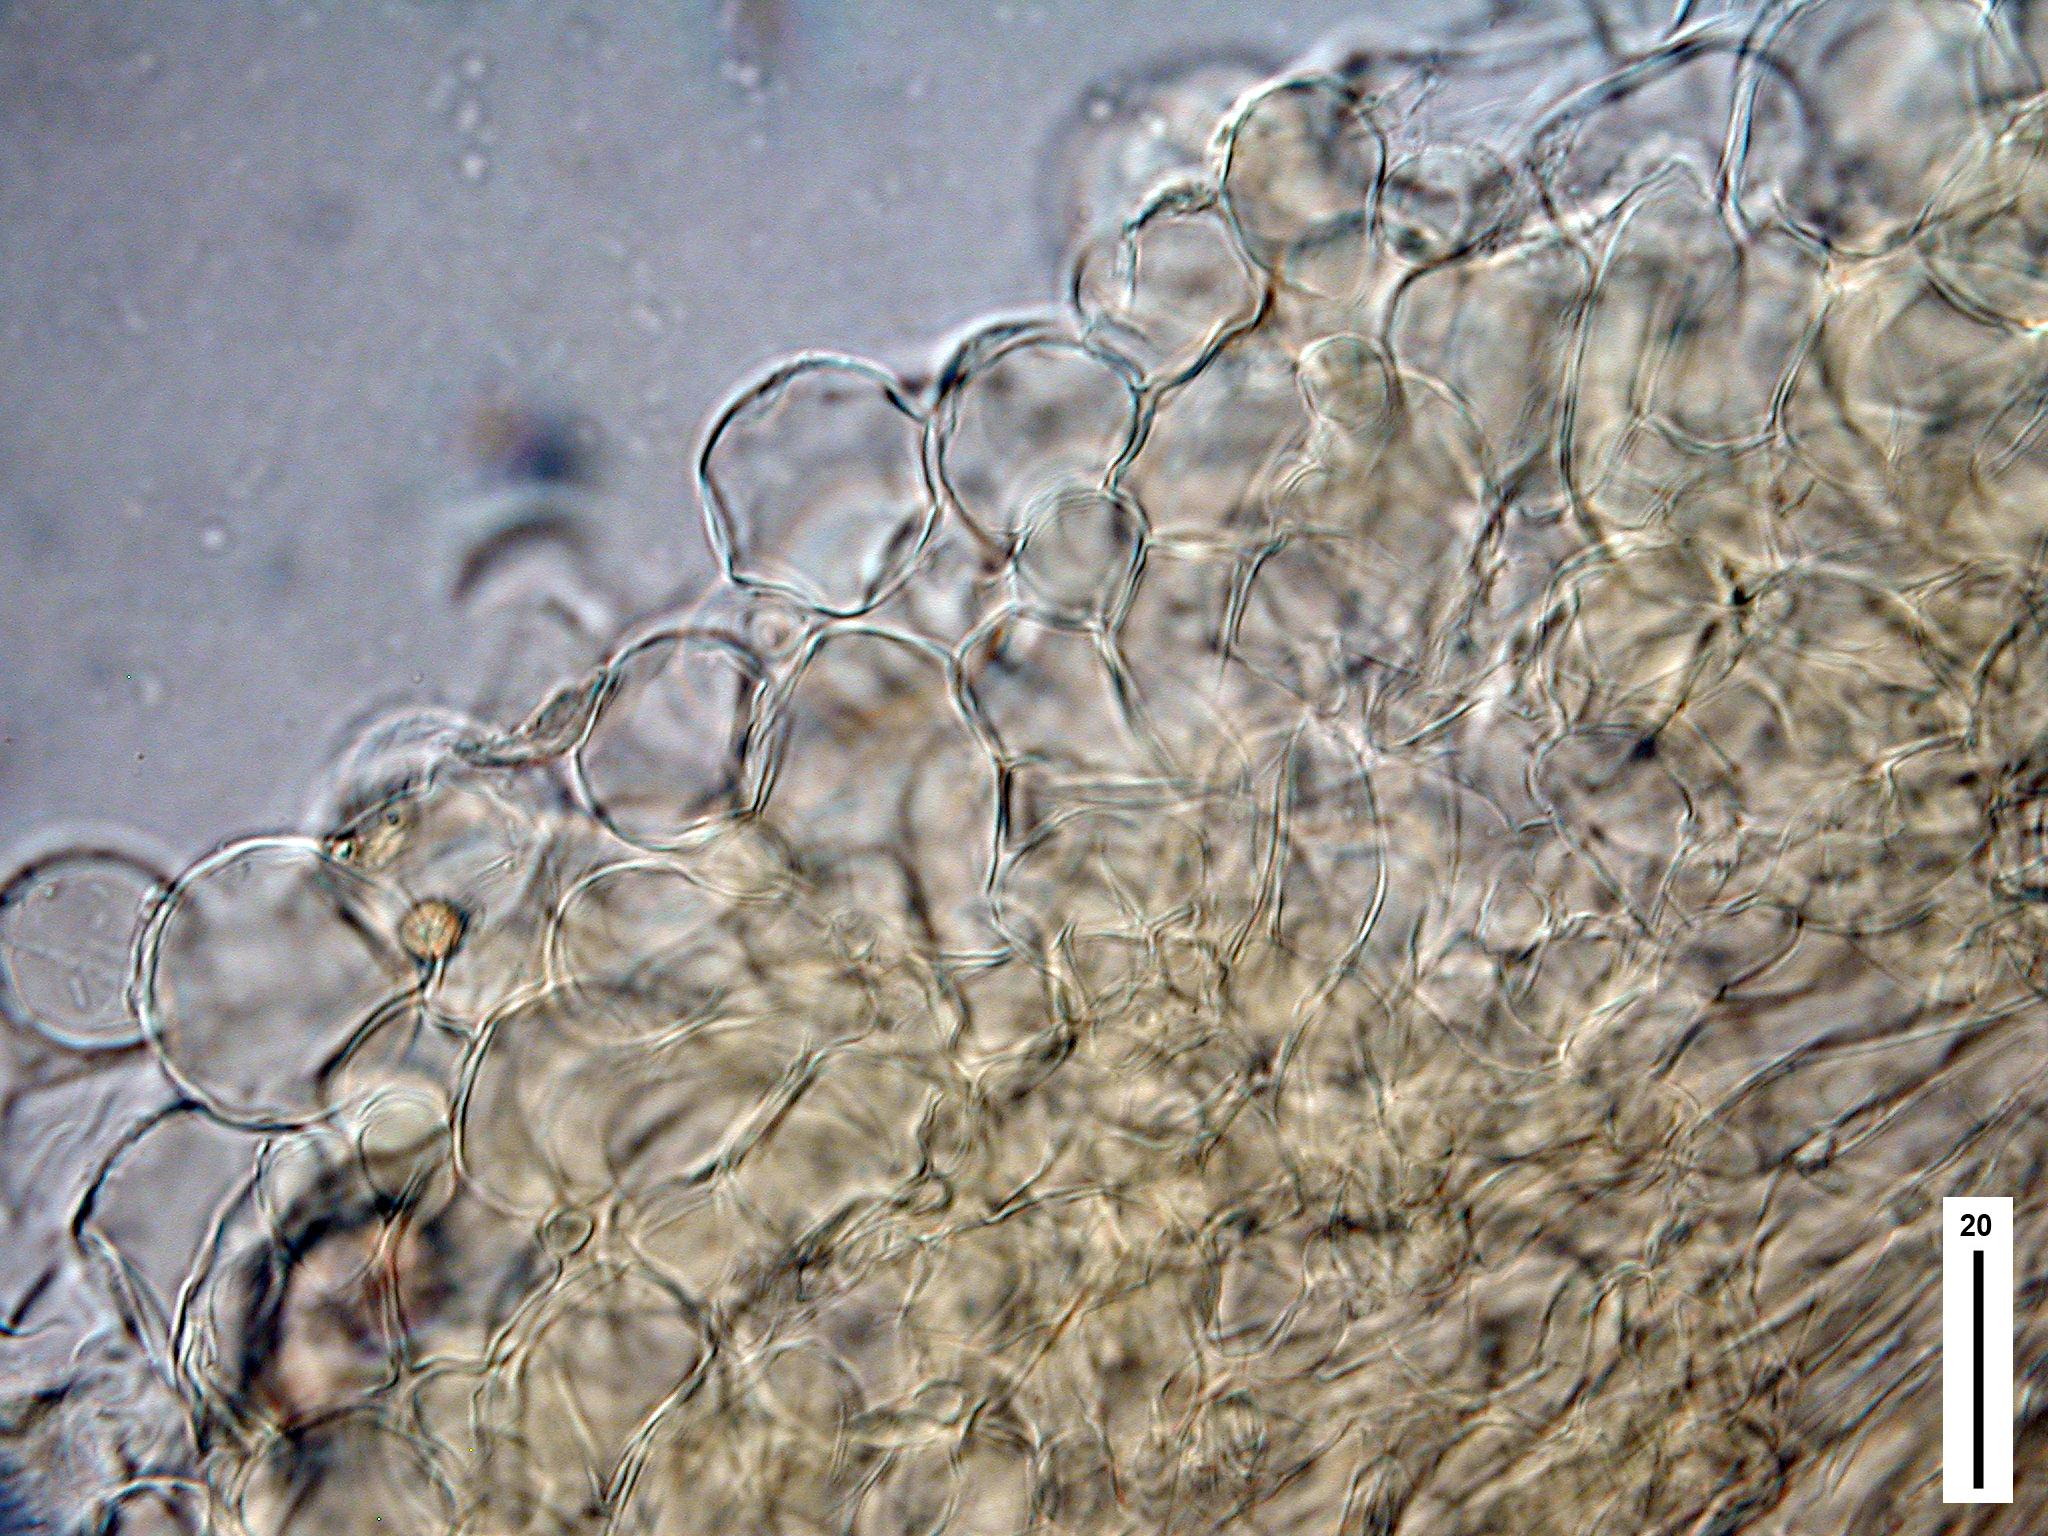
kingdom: Fungi
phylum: Basidiomycota
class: Agaricomycetes
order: Agaricales
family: Clavariaceae
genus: Hodophilus
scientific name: Hodophilus
